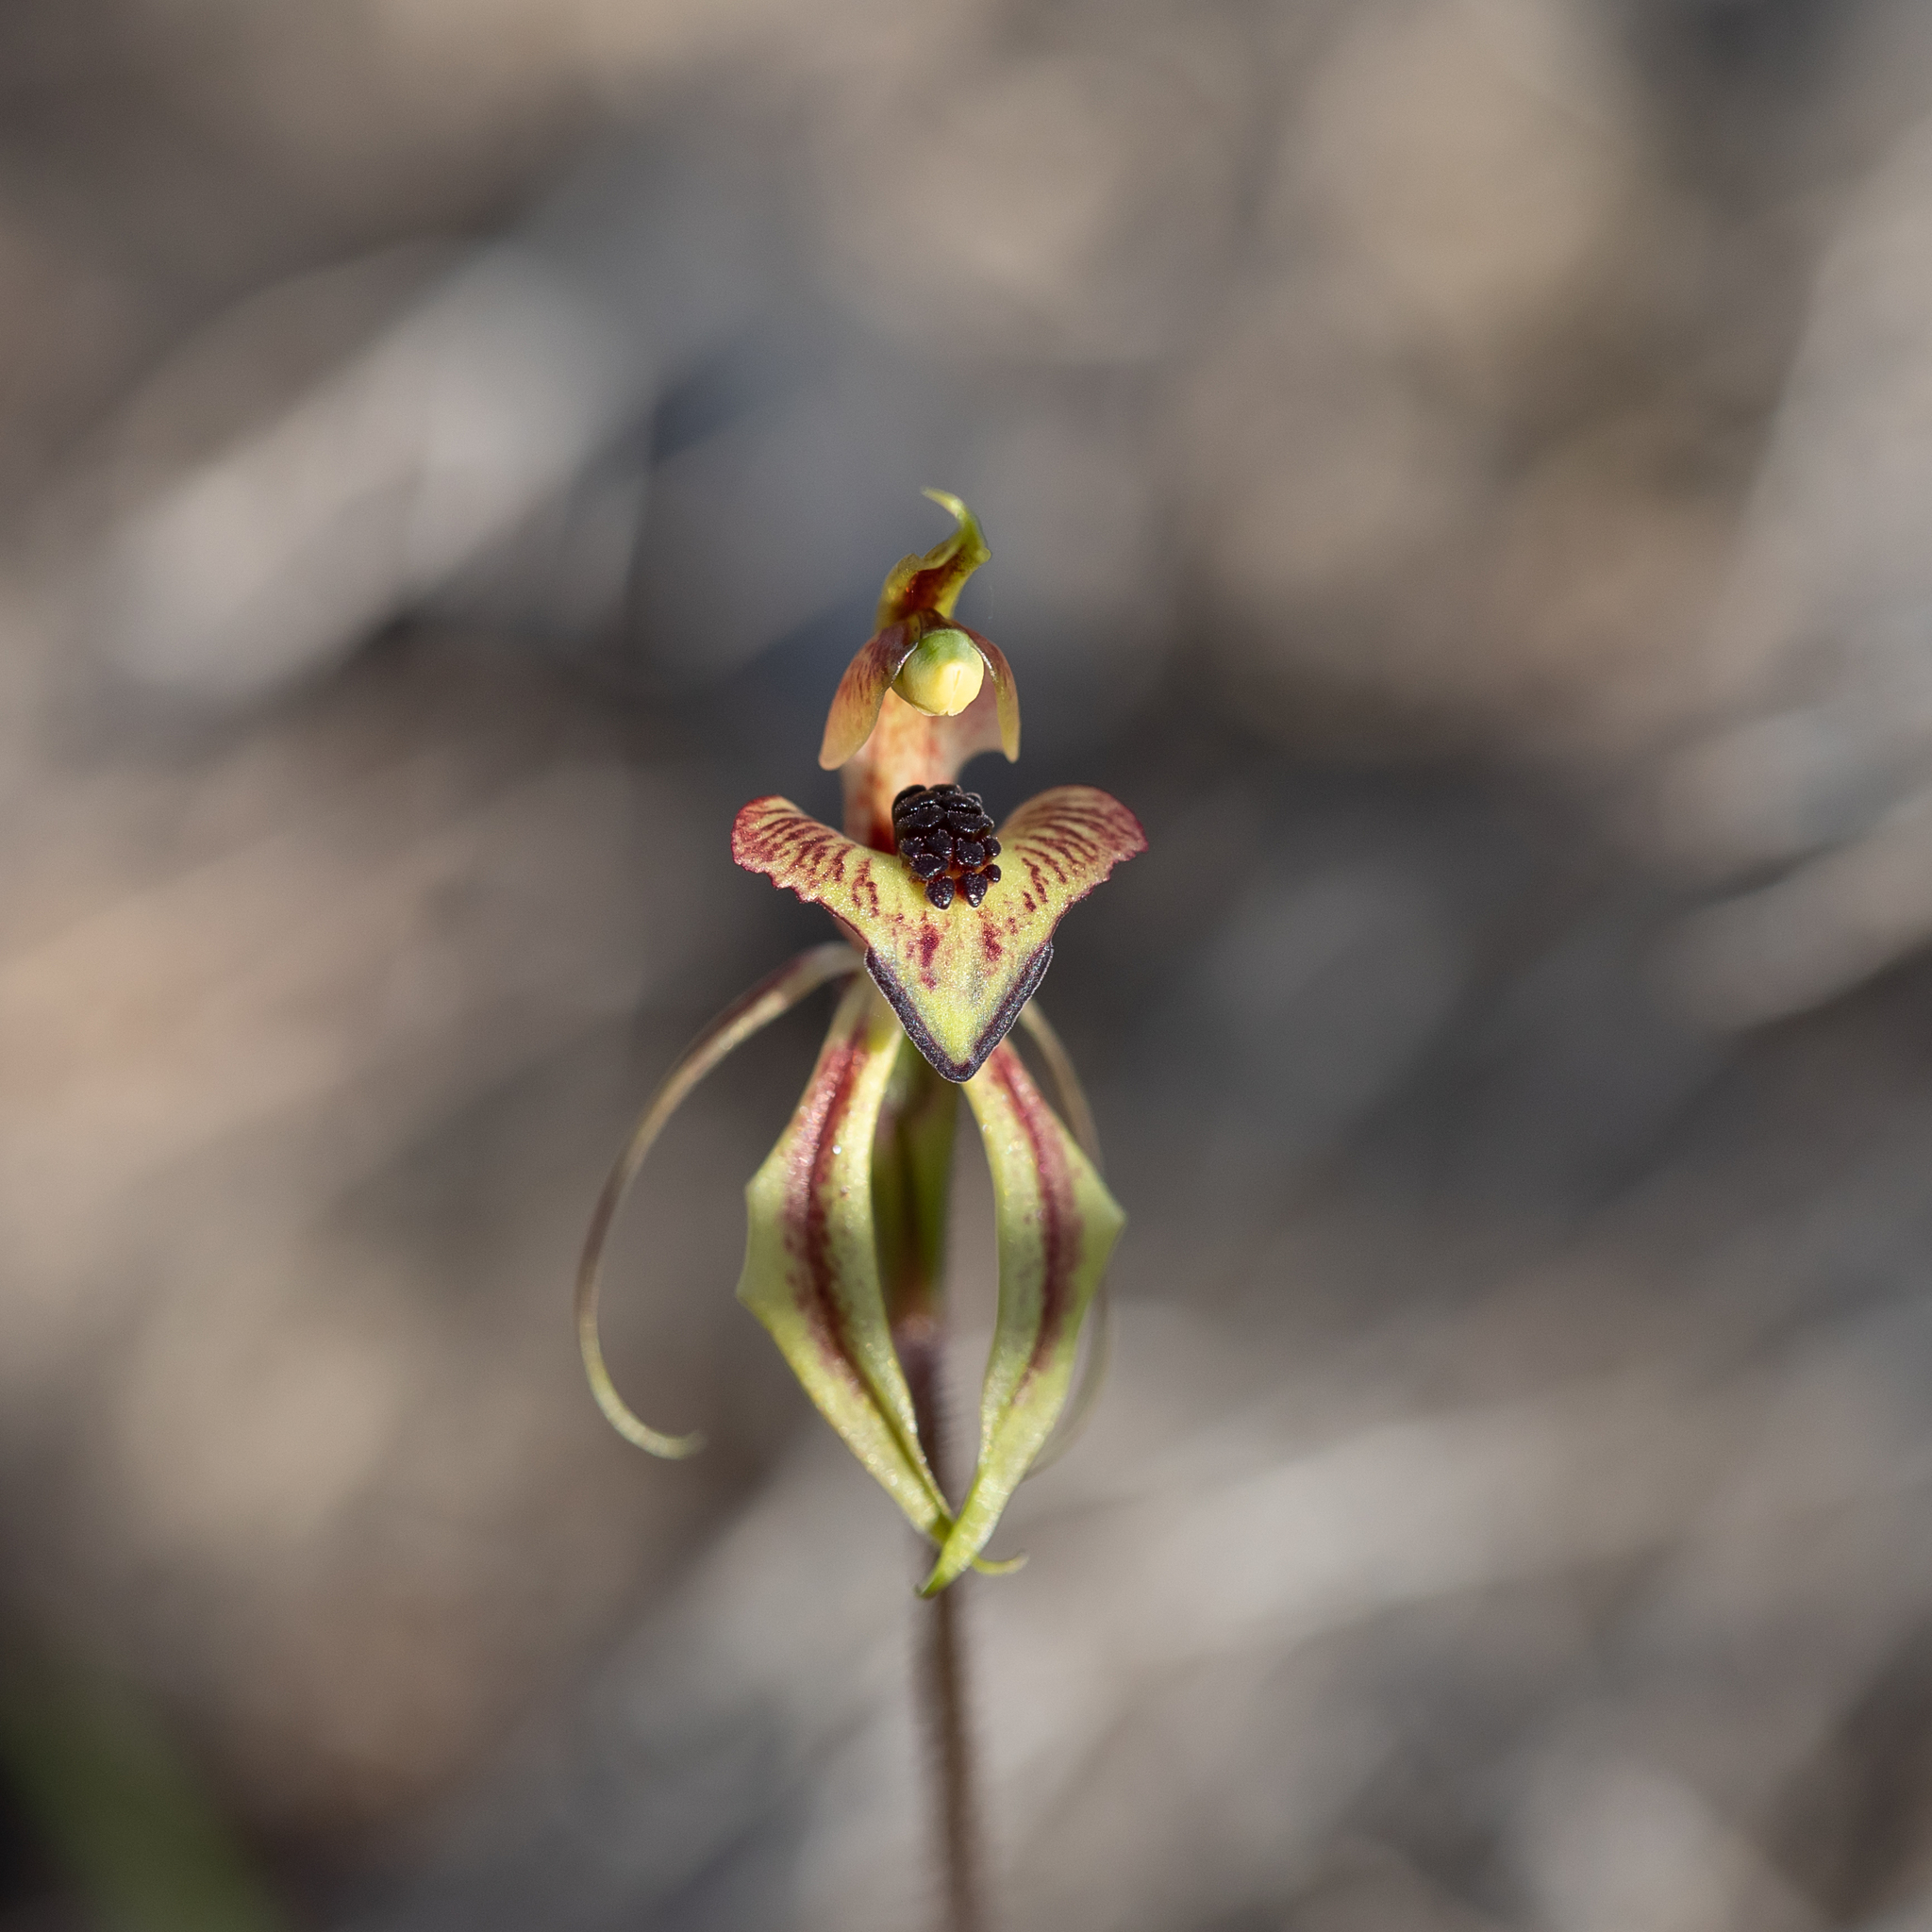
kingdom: Plantae
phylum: Tracheophyta
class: Liliopsida
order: Asparagales
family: Orchidaceae
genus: Caladenia
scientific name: Caladenia cardiochila
